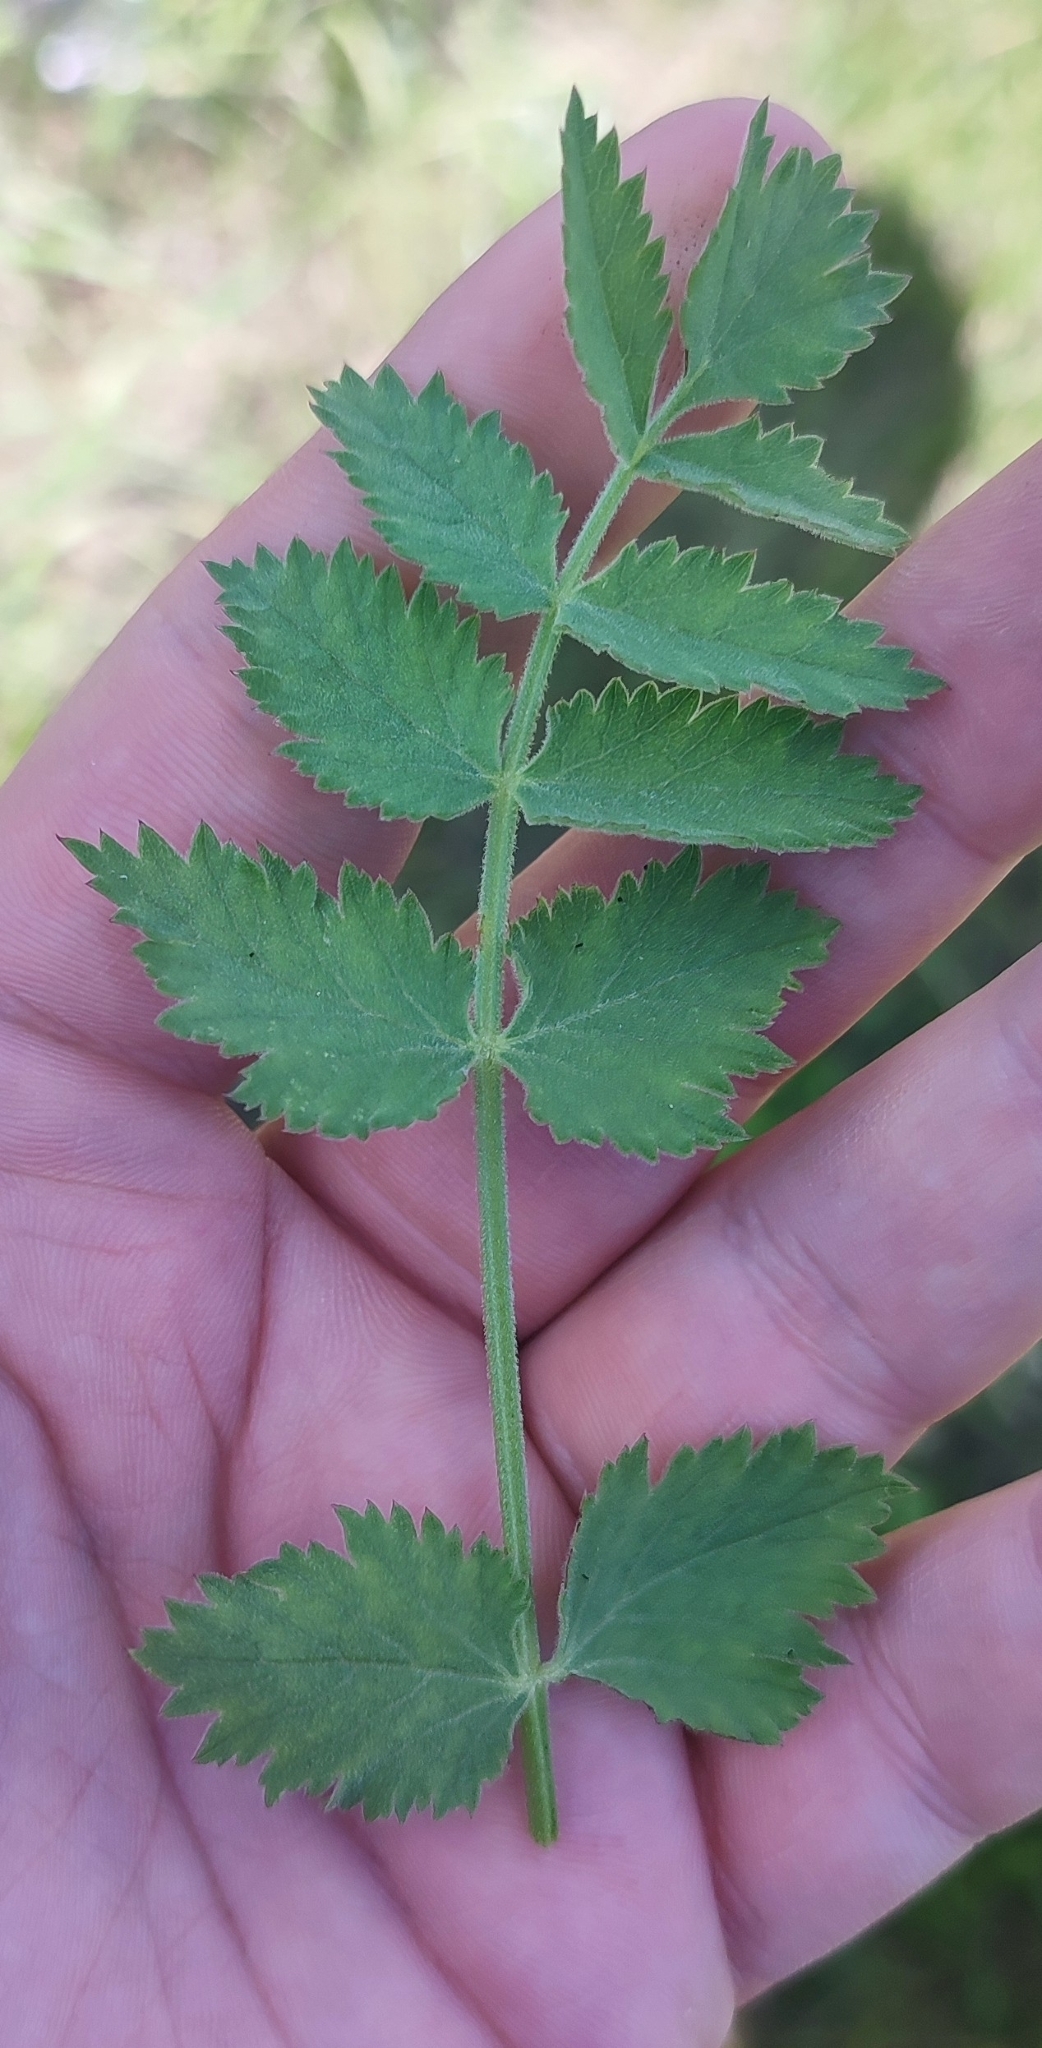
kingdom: Plantae
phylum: Tracheophyta
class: Magnoliopsida
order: Apiales
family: Apiaceae
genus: Pimpinella
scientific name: Pimpinella saxifraga
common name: Burnet-saxifrage
